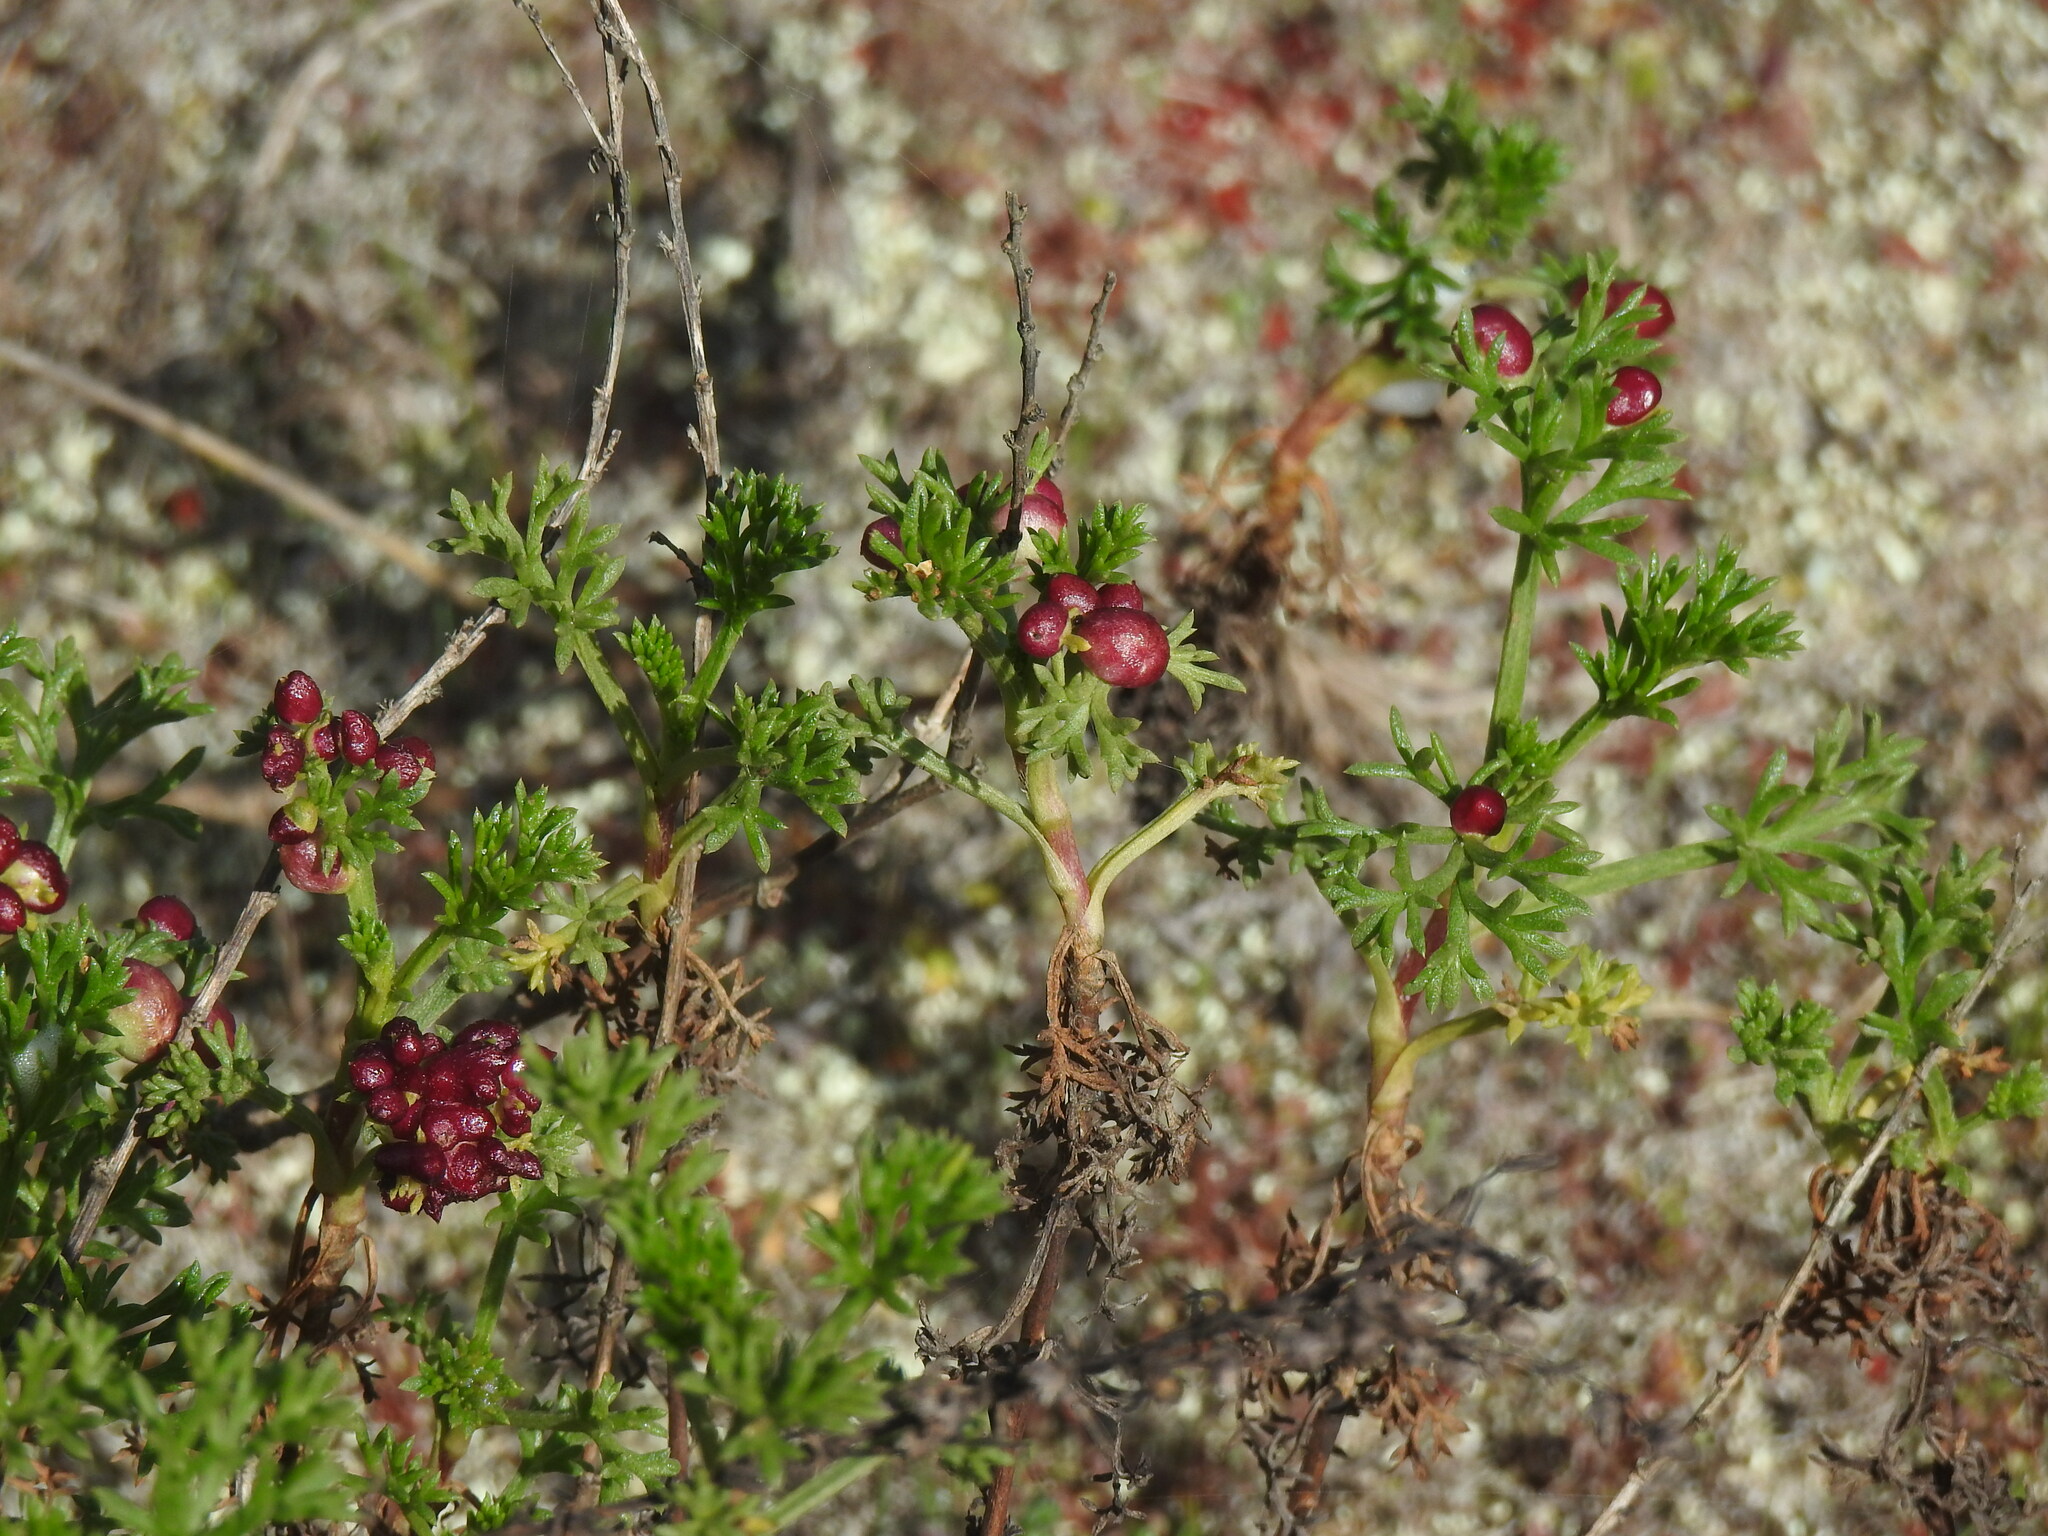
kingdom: Animalia
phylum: Arthropoda
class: Insecta
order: Diptera
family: Cecidomyiidae
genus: Rhopalomyia
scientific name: Rhopalomyia baccarum
